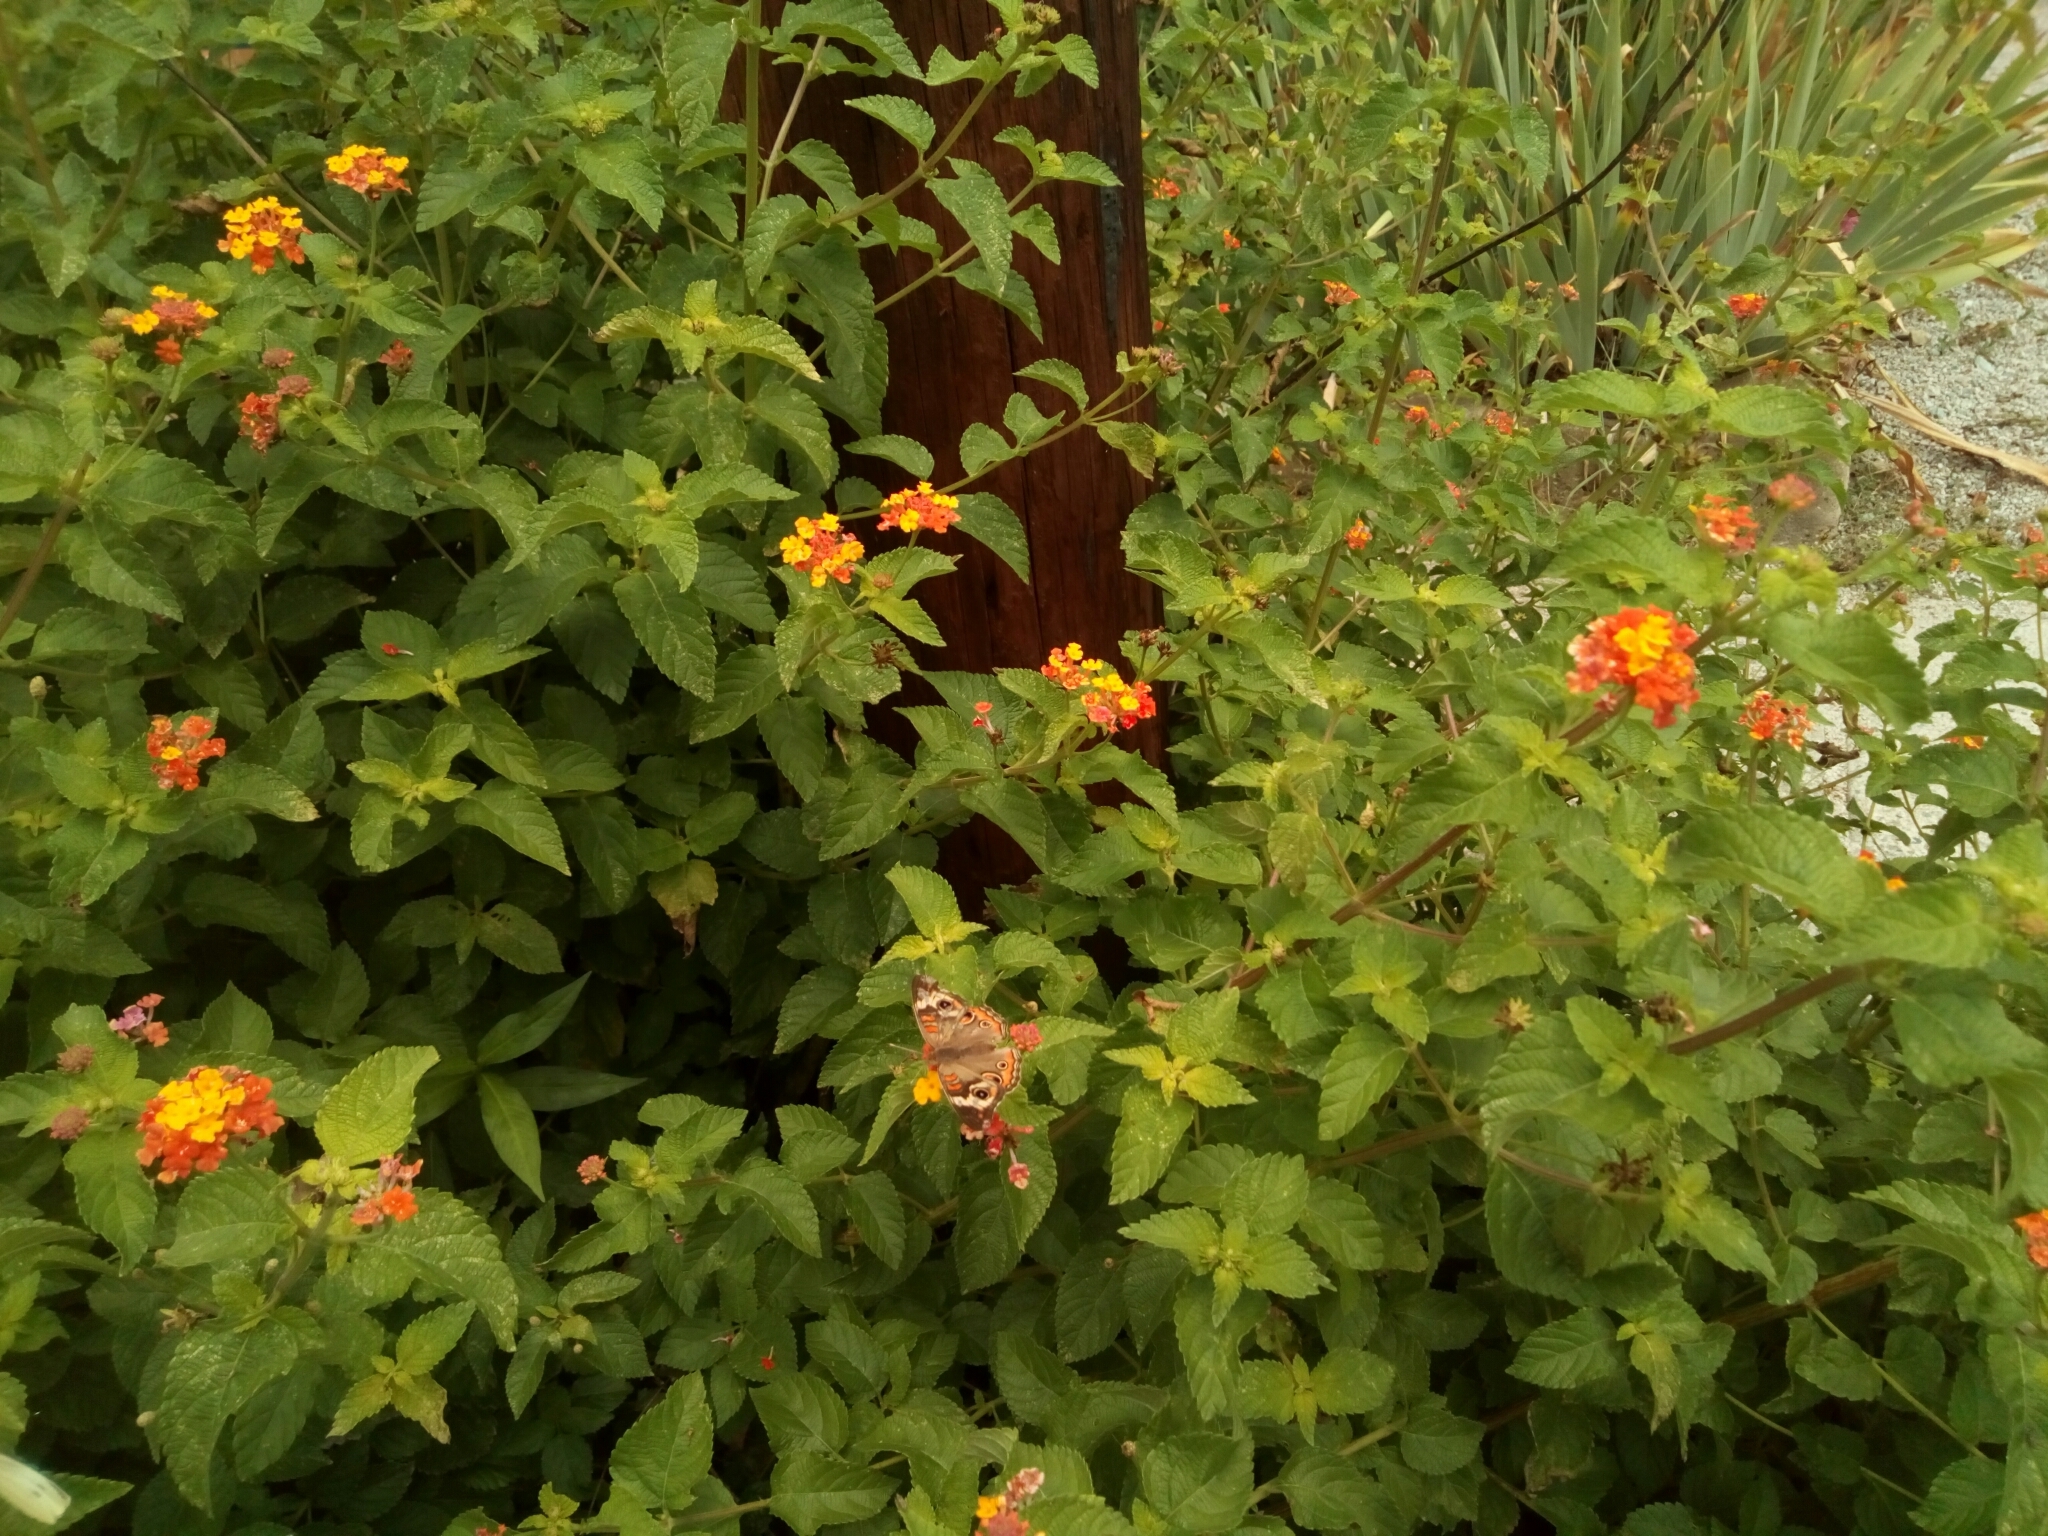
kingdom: Animalia
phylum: Arthropoda
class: Insecta
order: Lepidoptera
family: Nymphalidae
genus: Junonia
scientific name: Junonia coenia
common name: Common buckeye
